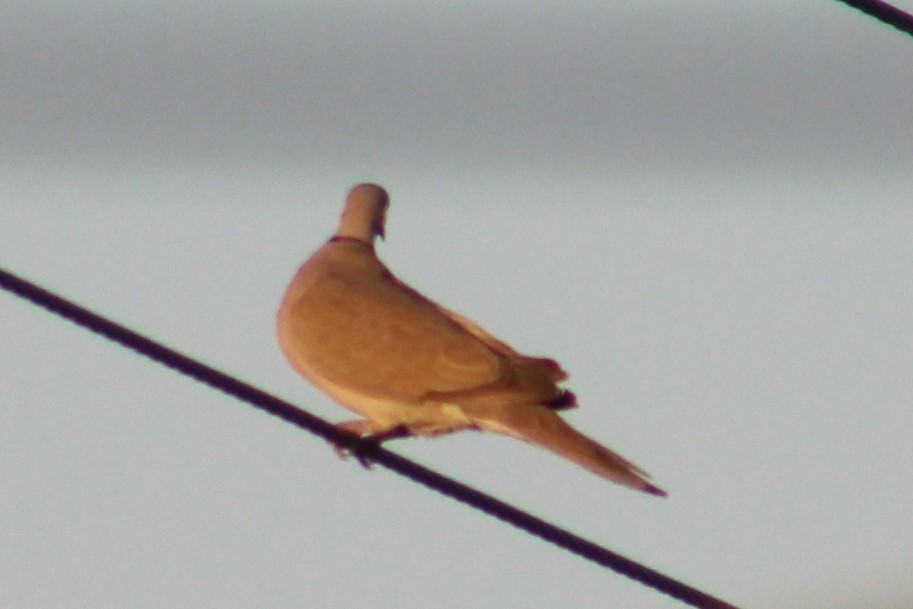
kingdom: Animalia
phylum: Chordata
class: Aves
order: Columbiformes
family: Columbidae
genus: Streptopelia
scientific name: Streptopelia decaocto
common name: Eurasian collared dove
